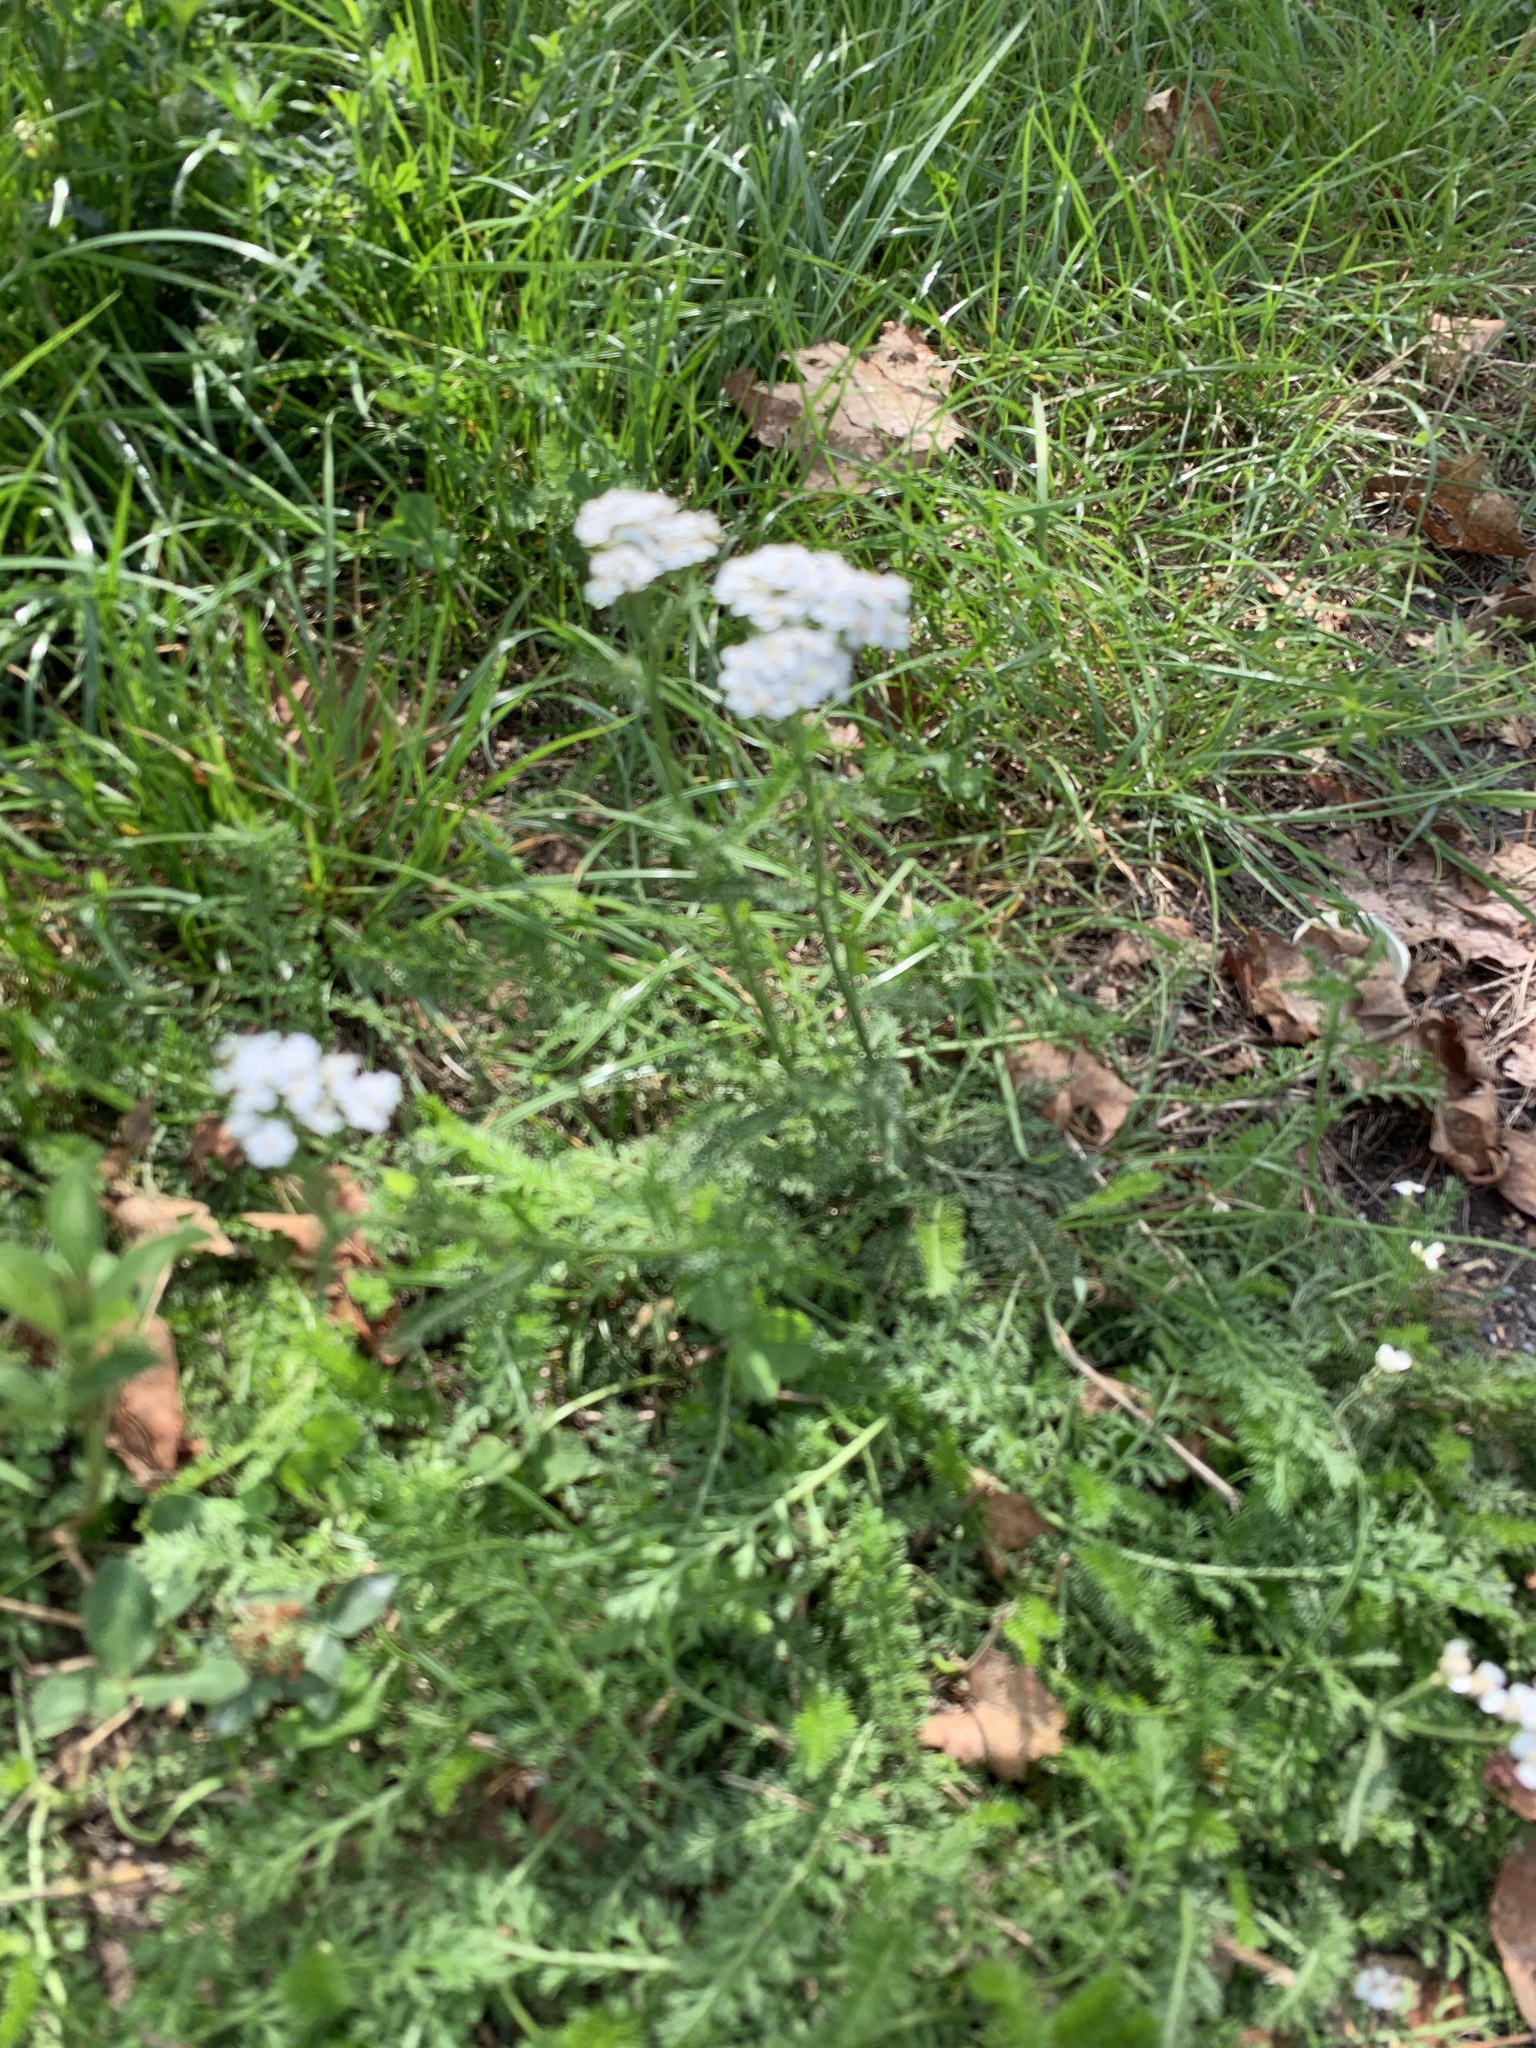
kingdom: Plantae
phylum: Tracheophyta
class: Magnoliopsida
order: Asterales
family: Asteraceae
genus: Achillea
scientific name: Achillea millefolium
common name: Yarrow
